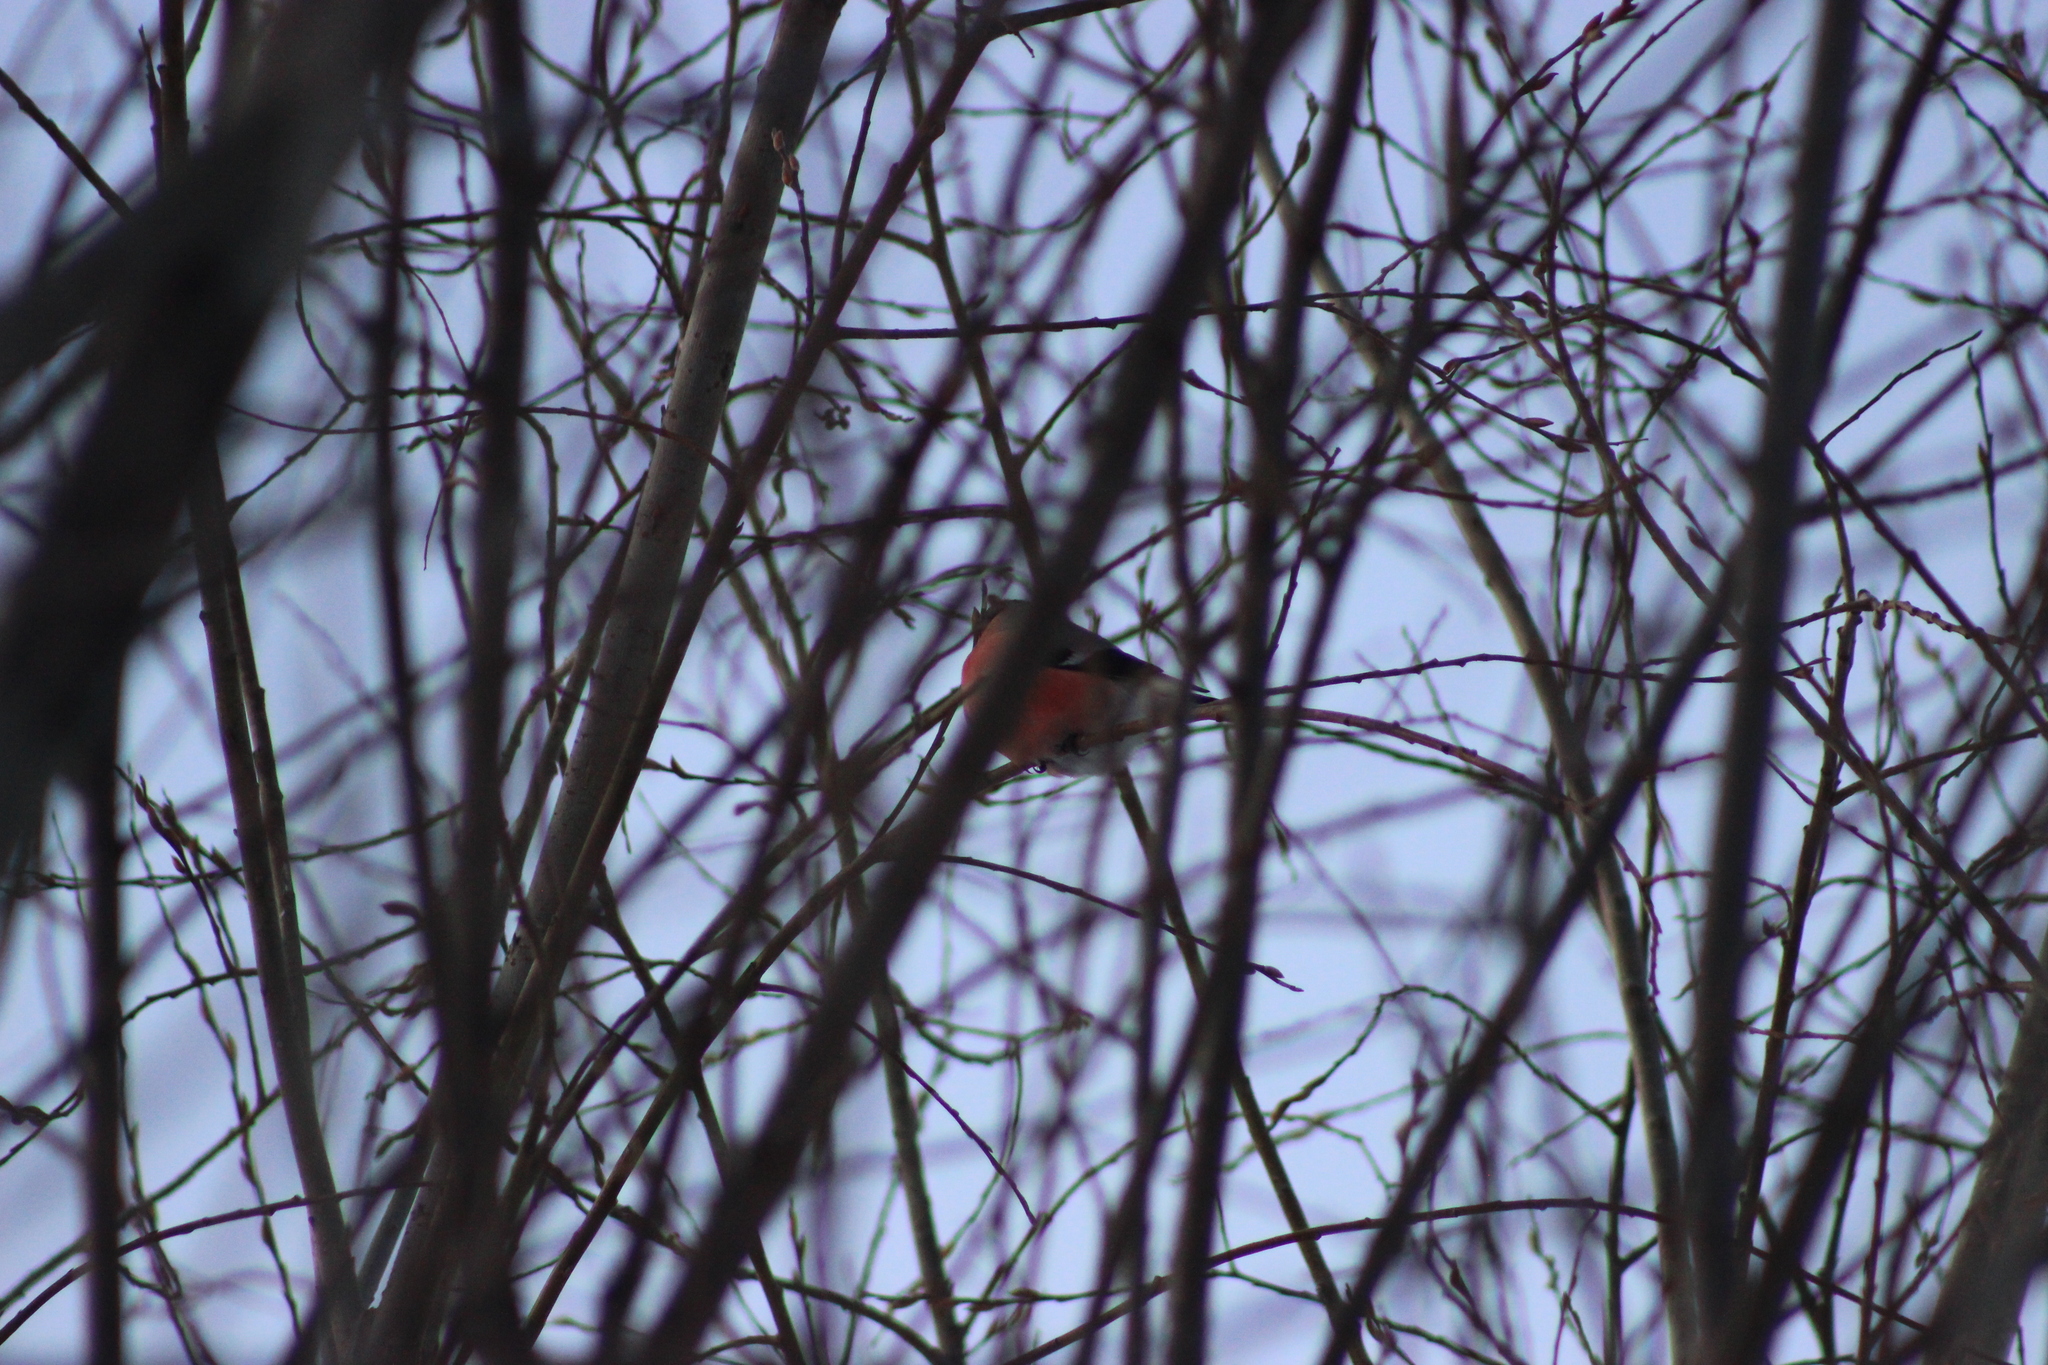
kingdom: Animalia
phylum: Chordata
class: Aves
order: Passeriformes
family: Fringillidae
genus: Pyrrhula
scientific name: Pyrrhula pyrrhula
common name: Eurasian bullfinch
